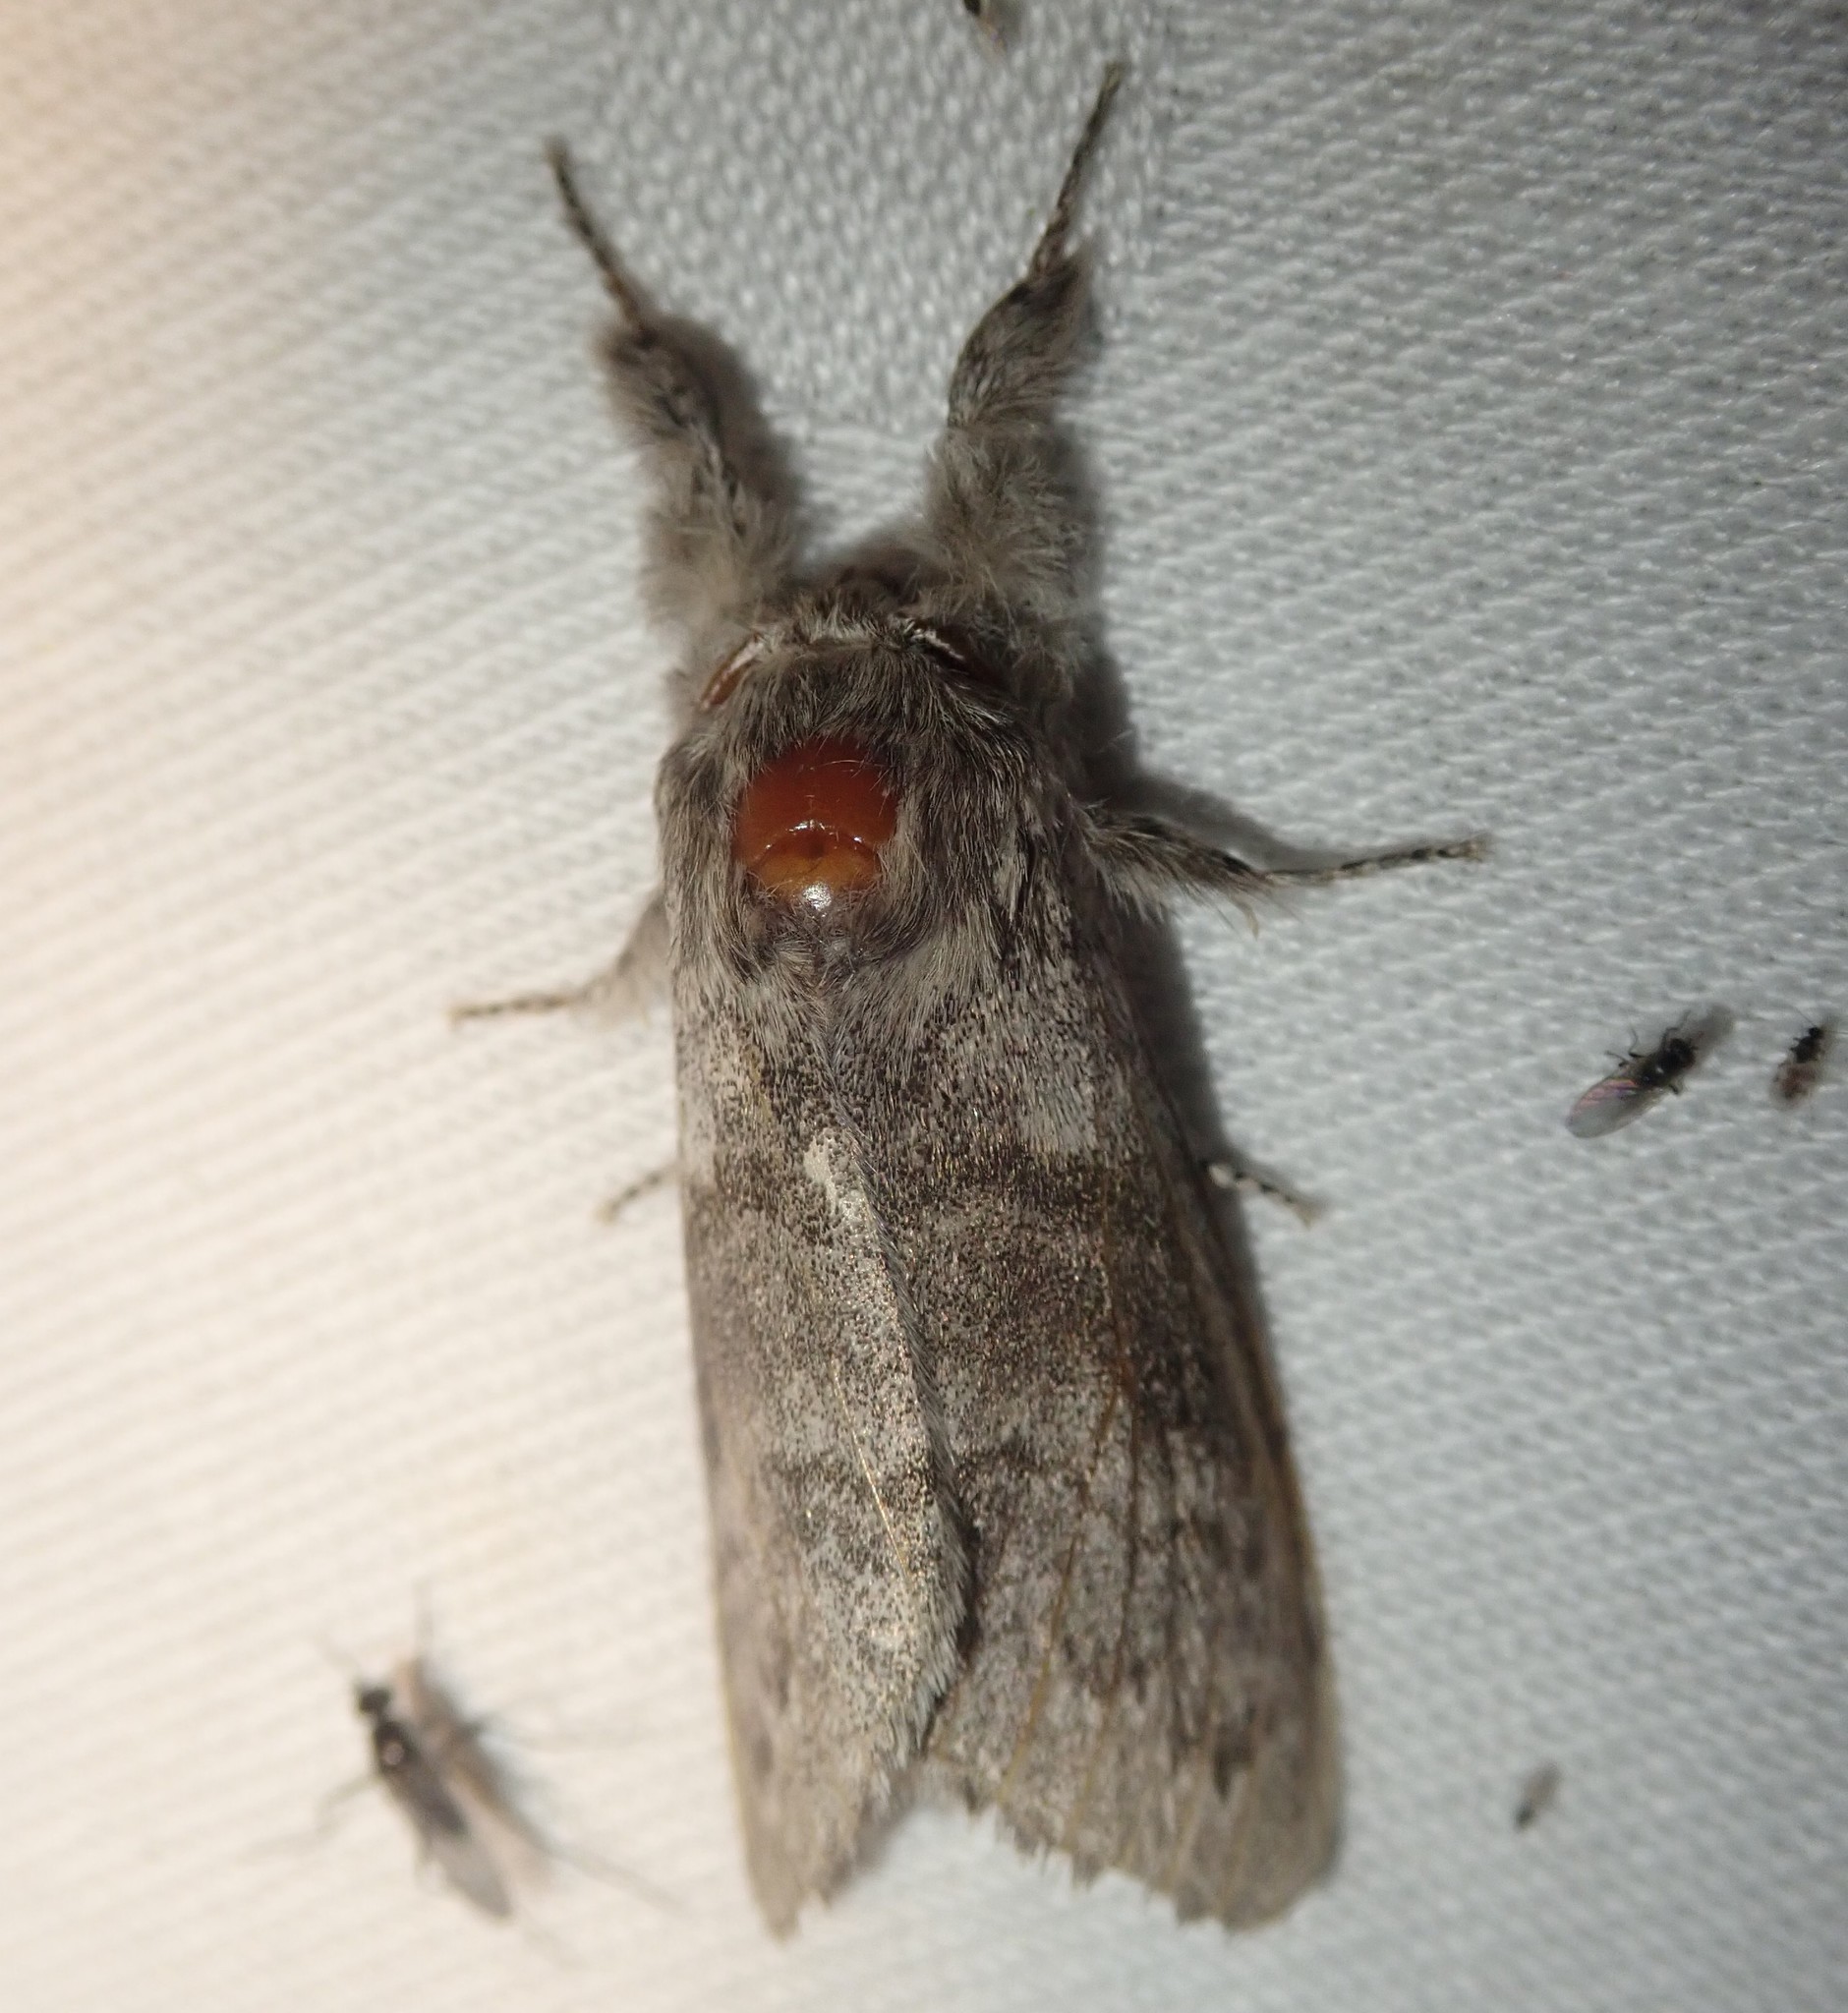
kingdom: Animalia
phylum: Arthropoda
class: Insecta
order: Lepidoptera
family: Erebidae
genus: Calliteara
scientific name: Calliteara pudibunda
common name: Pale tussock
